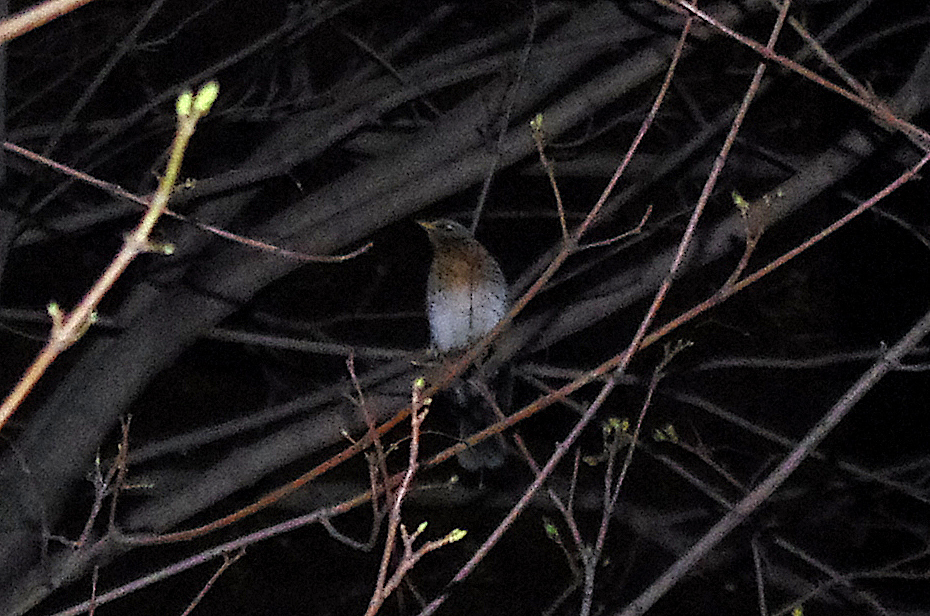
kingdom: Animalia
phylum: Chordata
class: Aves
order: Passeriformes
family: Turdidae
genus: Turdus
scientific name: Turdus pilaris
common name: Fieldfare
